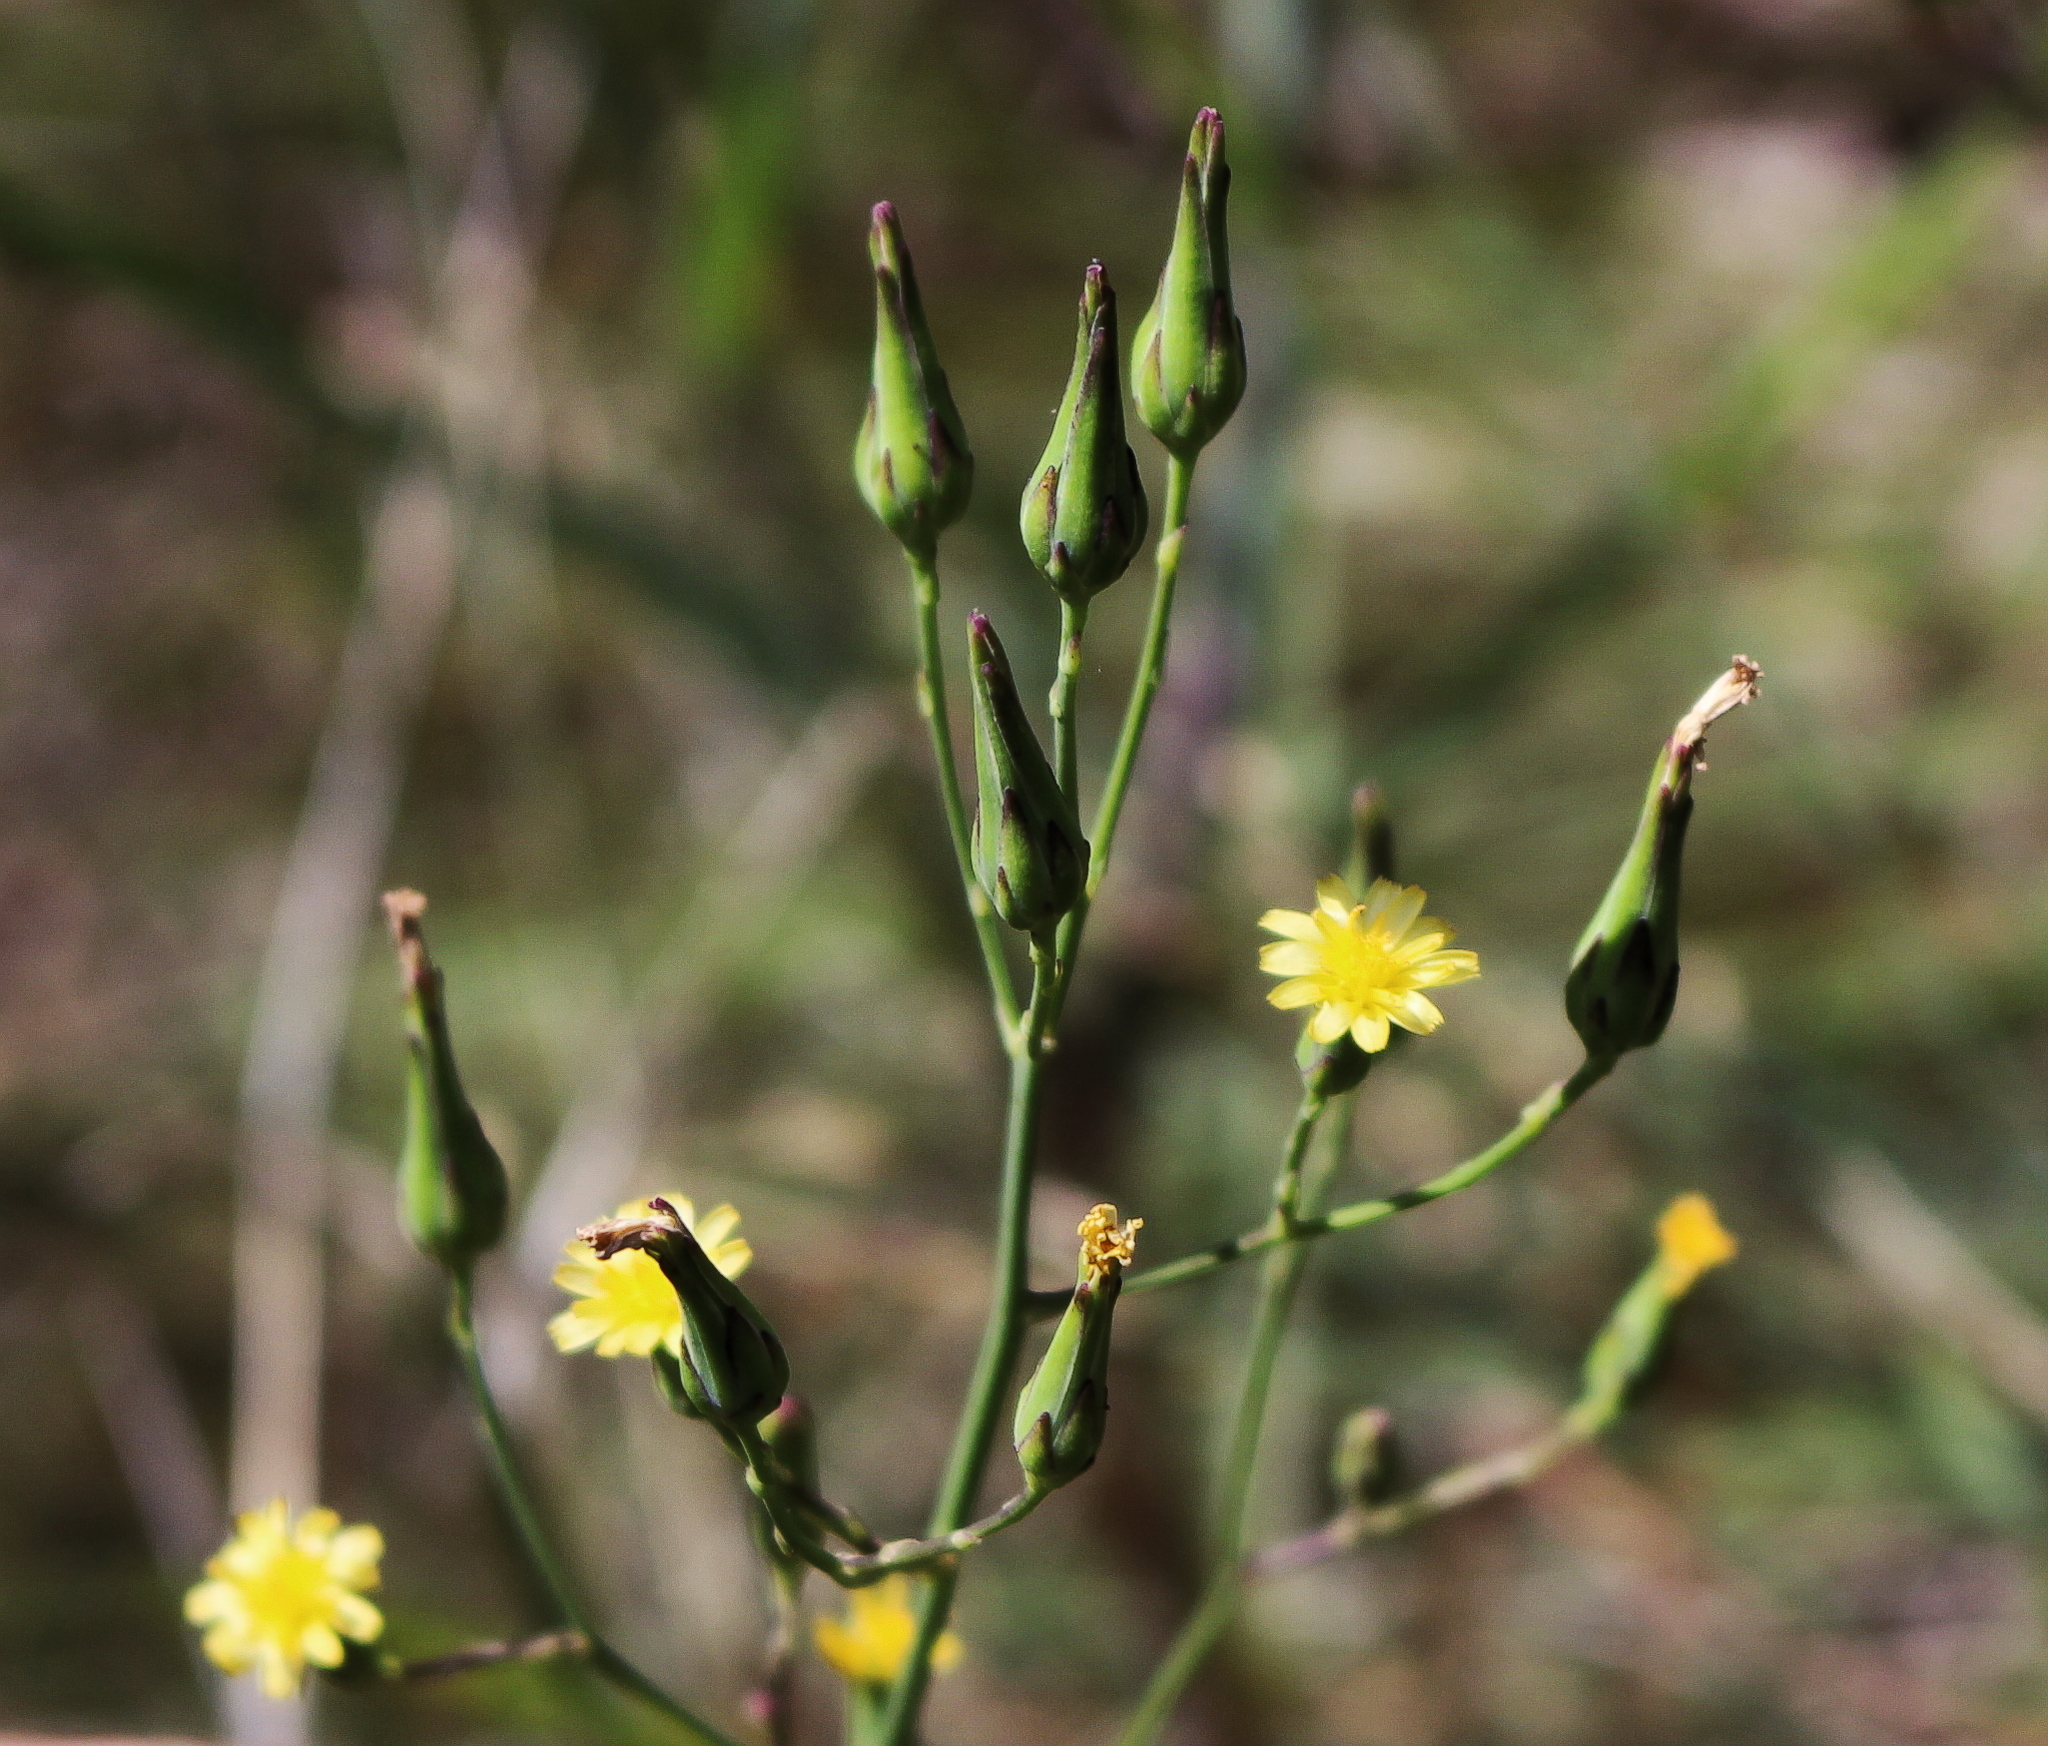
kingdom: Plantae
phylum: Tracheophyta
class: Magnoliopsida
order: Asterales
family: Asteraceae
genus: Lactuca
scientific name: Lactuca canadensis
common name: Canada lettuce
